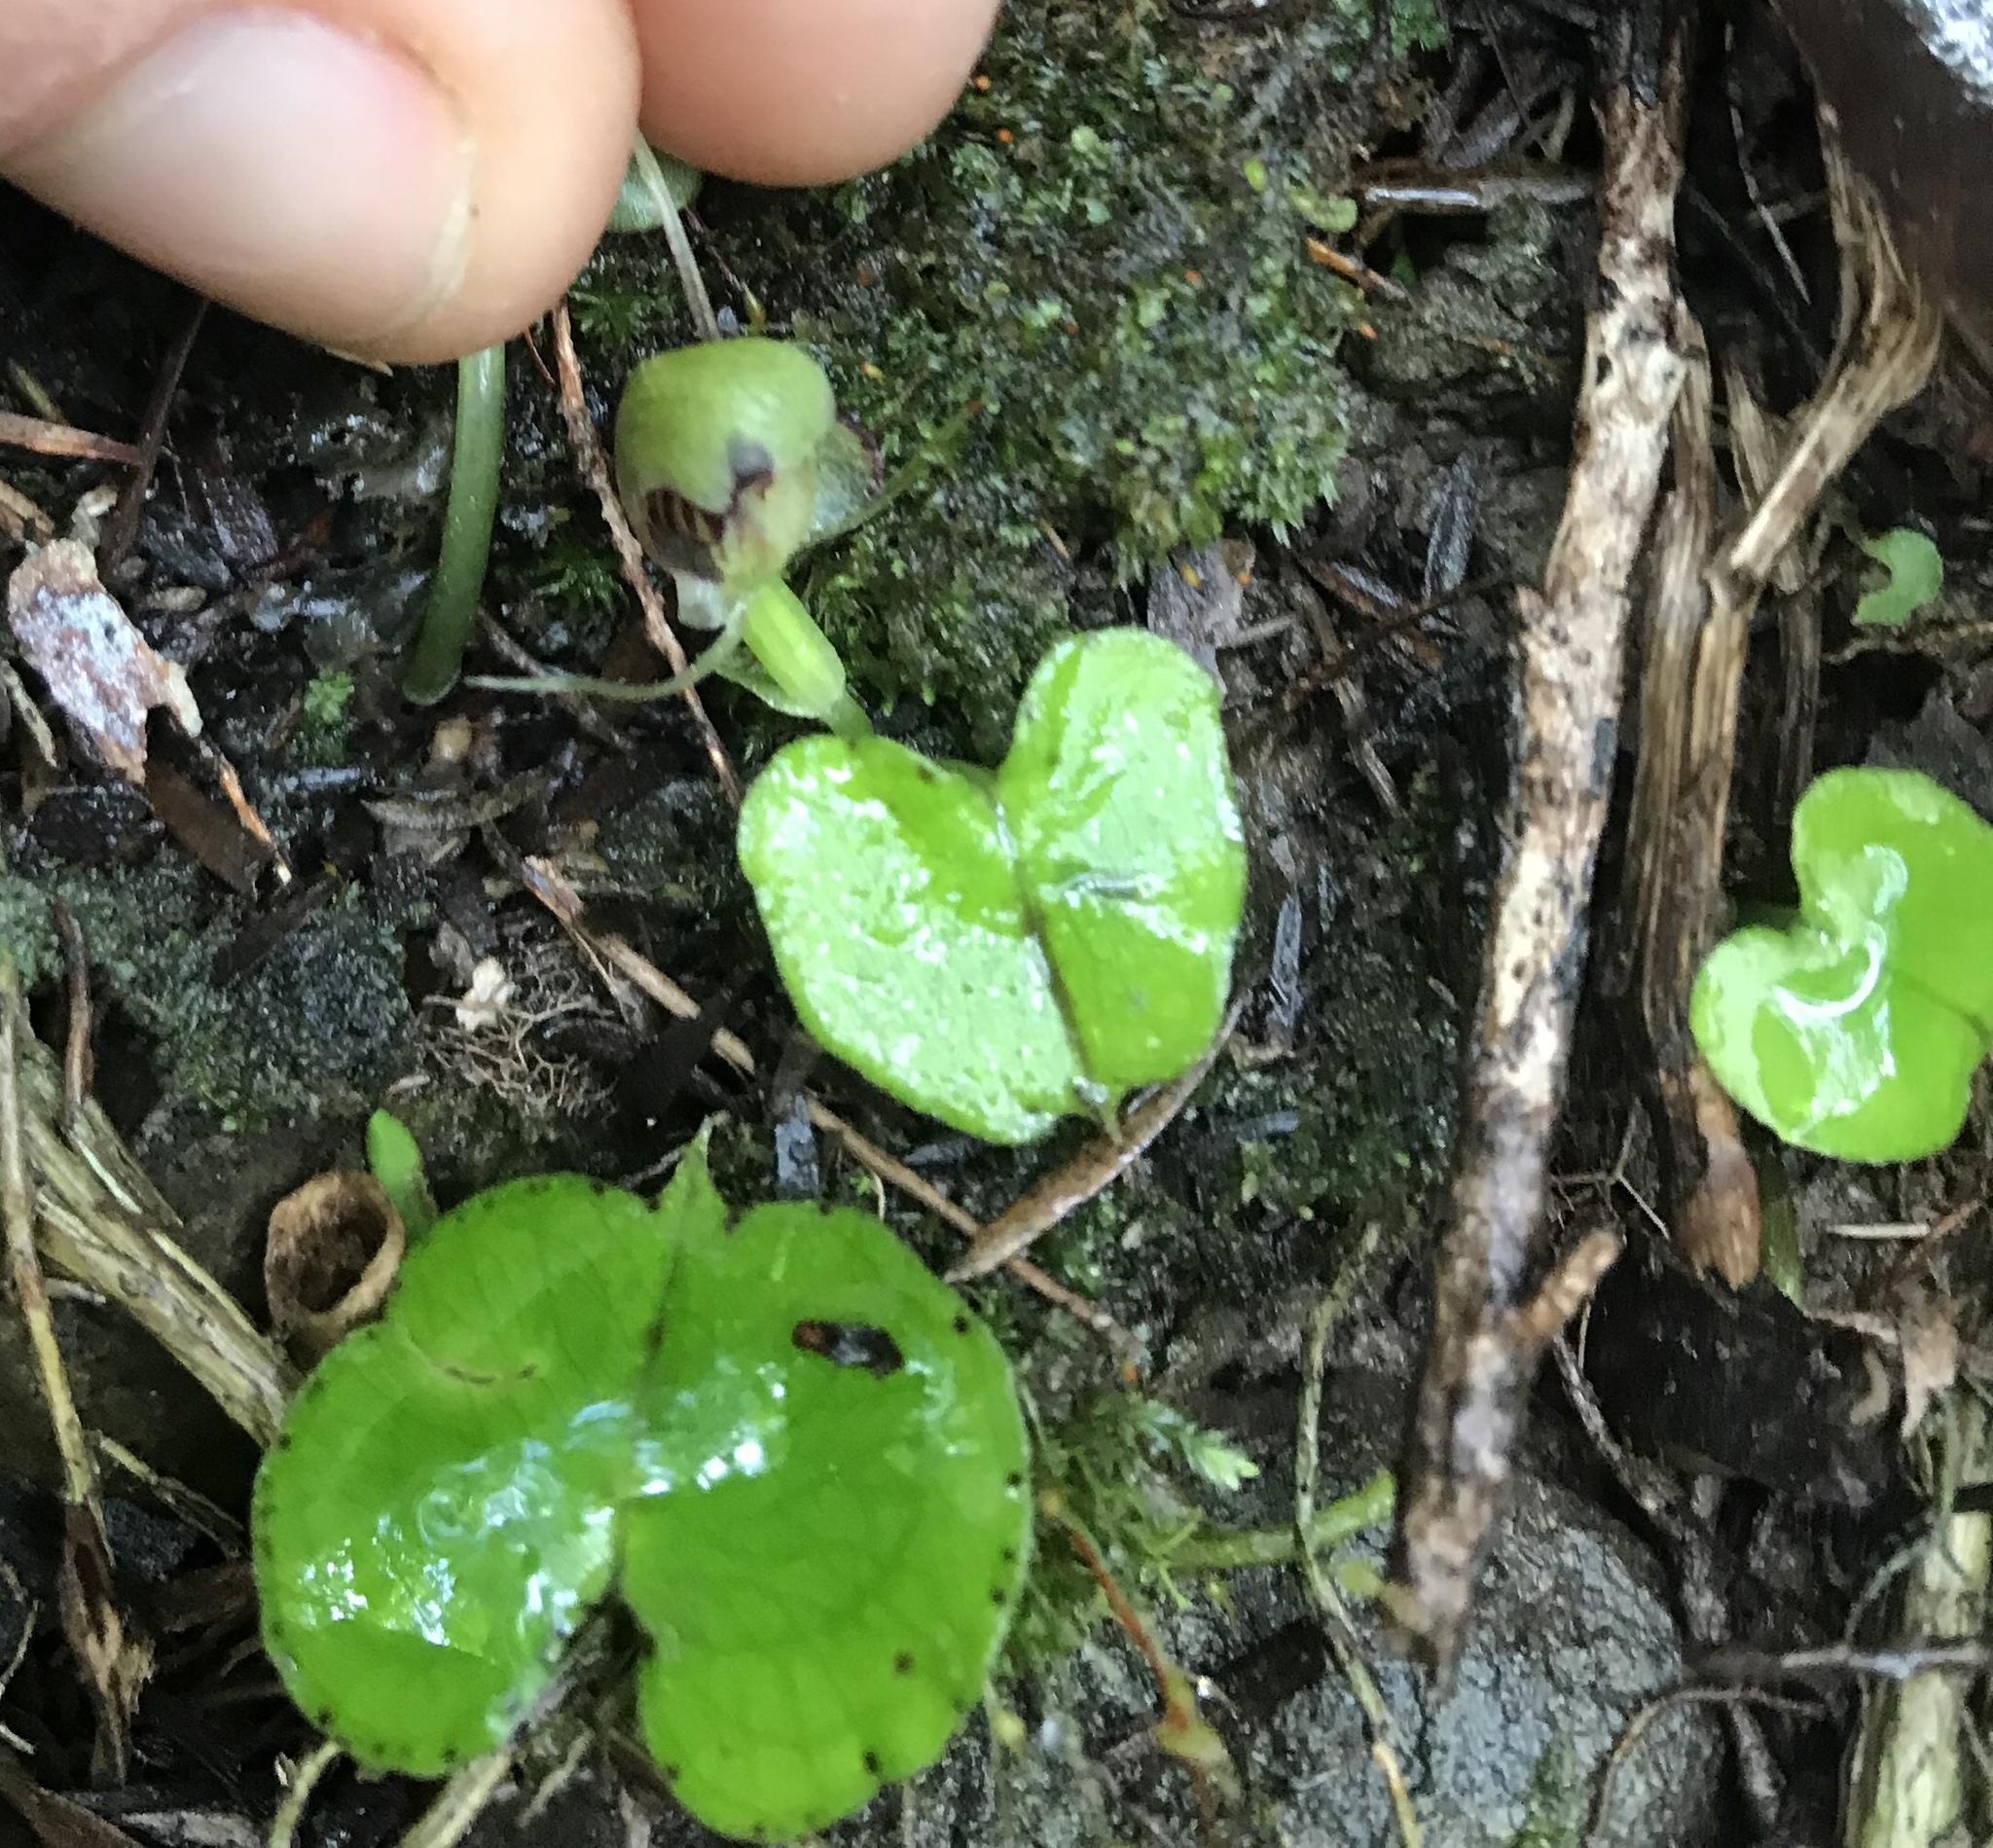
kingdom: Plantae
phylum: Tracheophyta
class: Liliopsida
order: Asparagales
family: Orchidaceae
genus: Corybas
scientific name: Corybas vitreus
